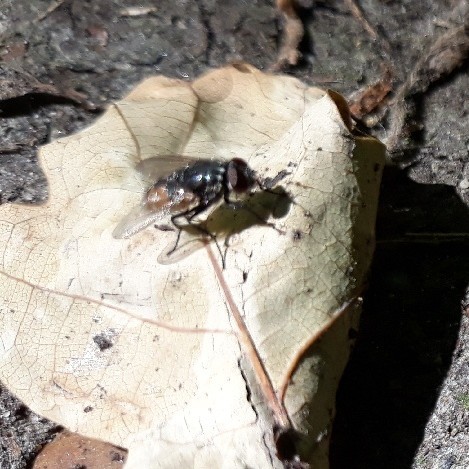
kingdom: Animalia
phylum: Arthropoda
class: Insecta
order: Diptera
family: Muscidae
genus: Musca
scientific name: Musca autumnalis
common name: Face fly
